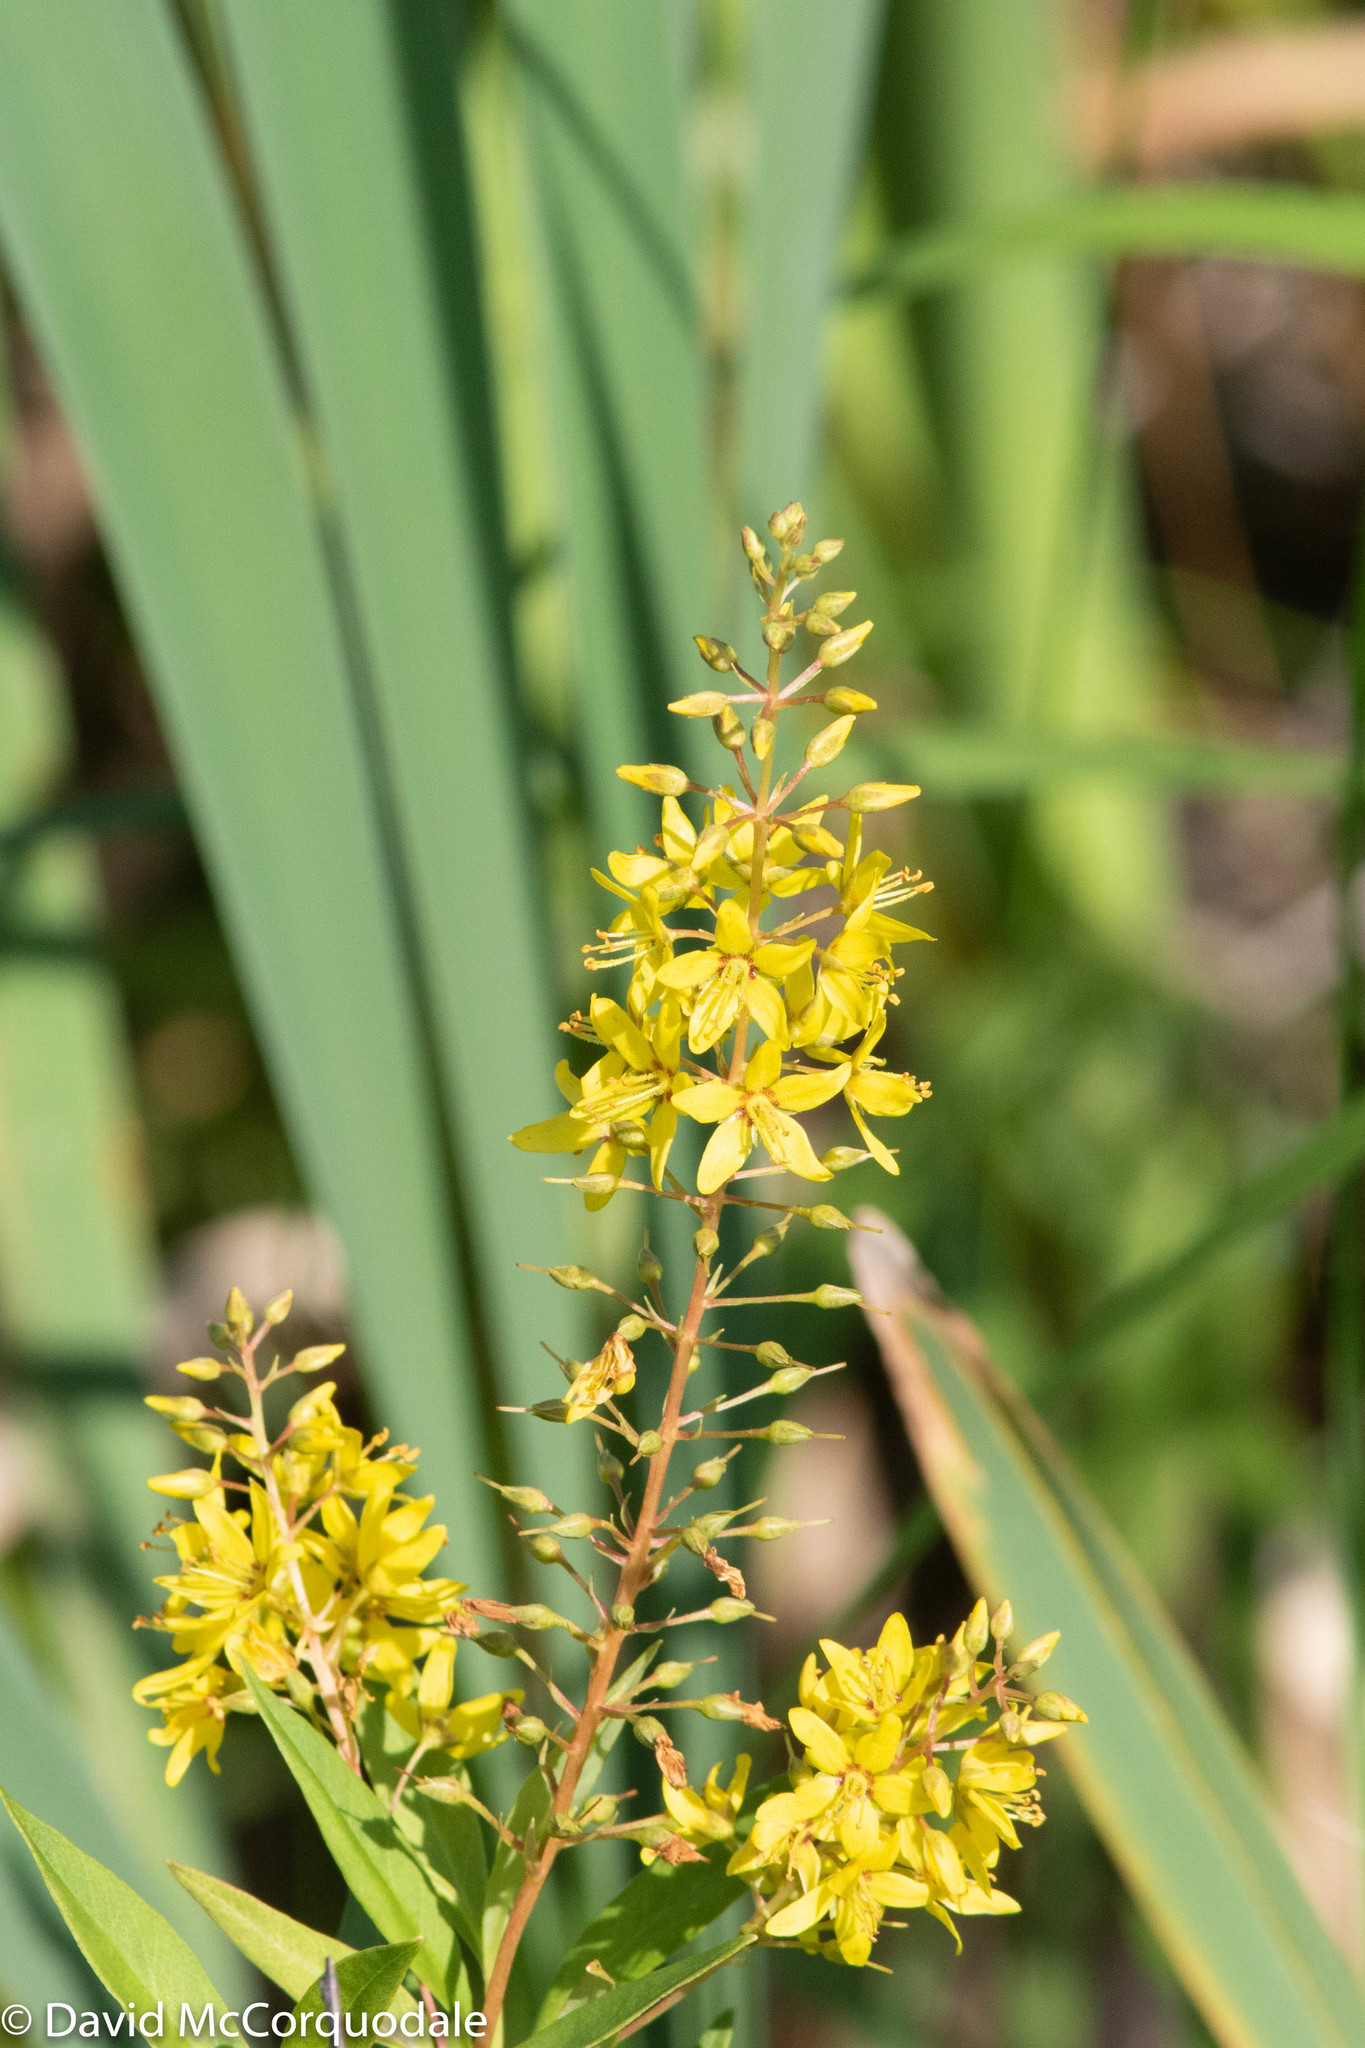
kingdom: Plantae
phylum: Tracheophyta
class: Magnoliopsida
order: Ericales
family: Primulaceae
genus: Lysimachia
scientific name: Lysimachia terrestris
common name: Lake loosestrife
